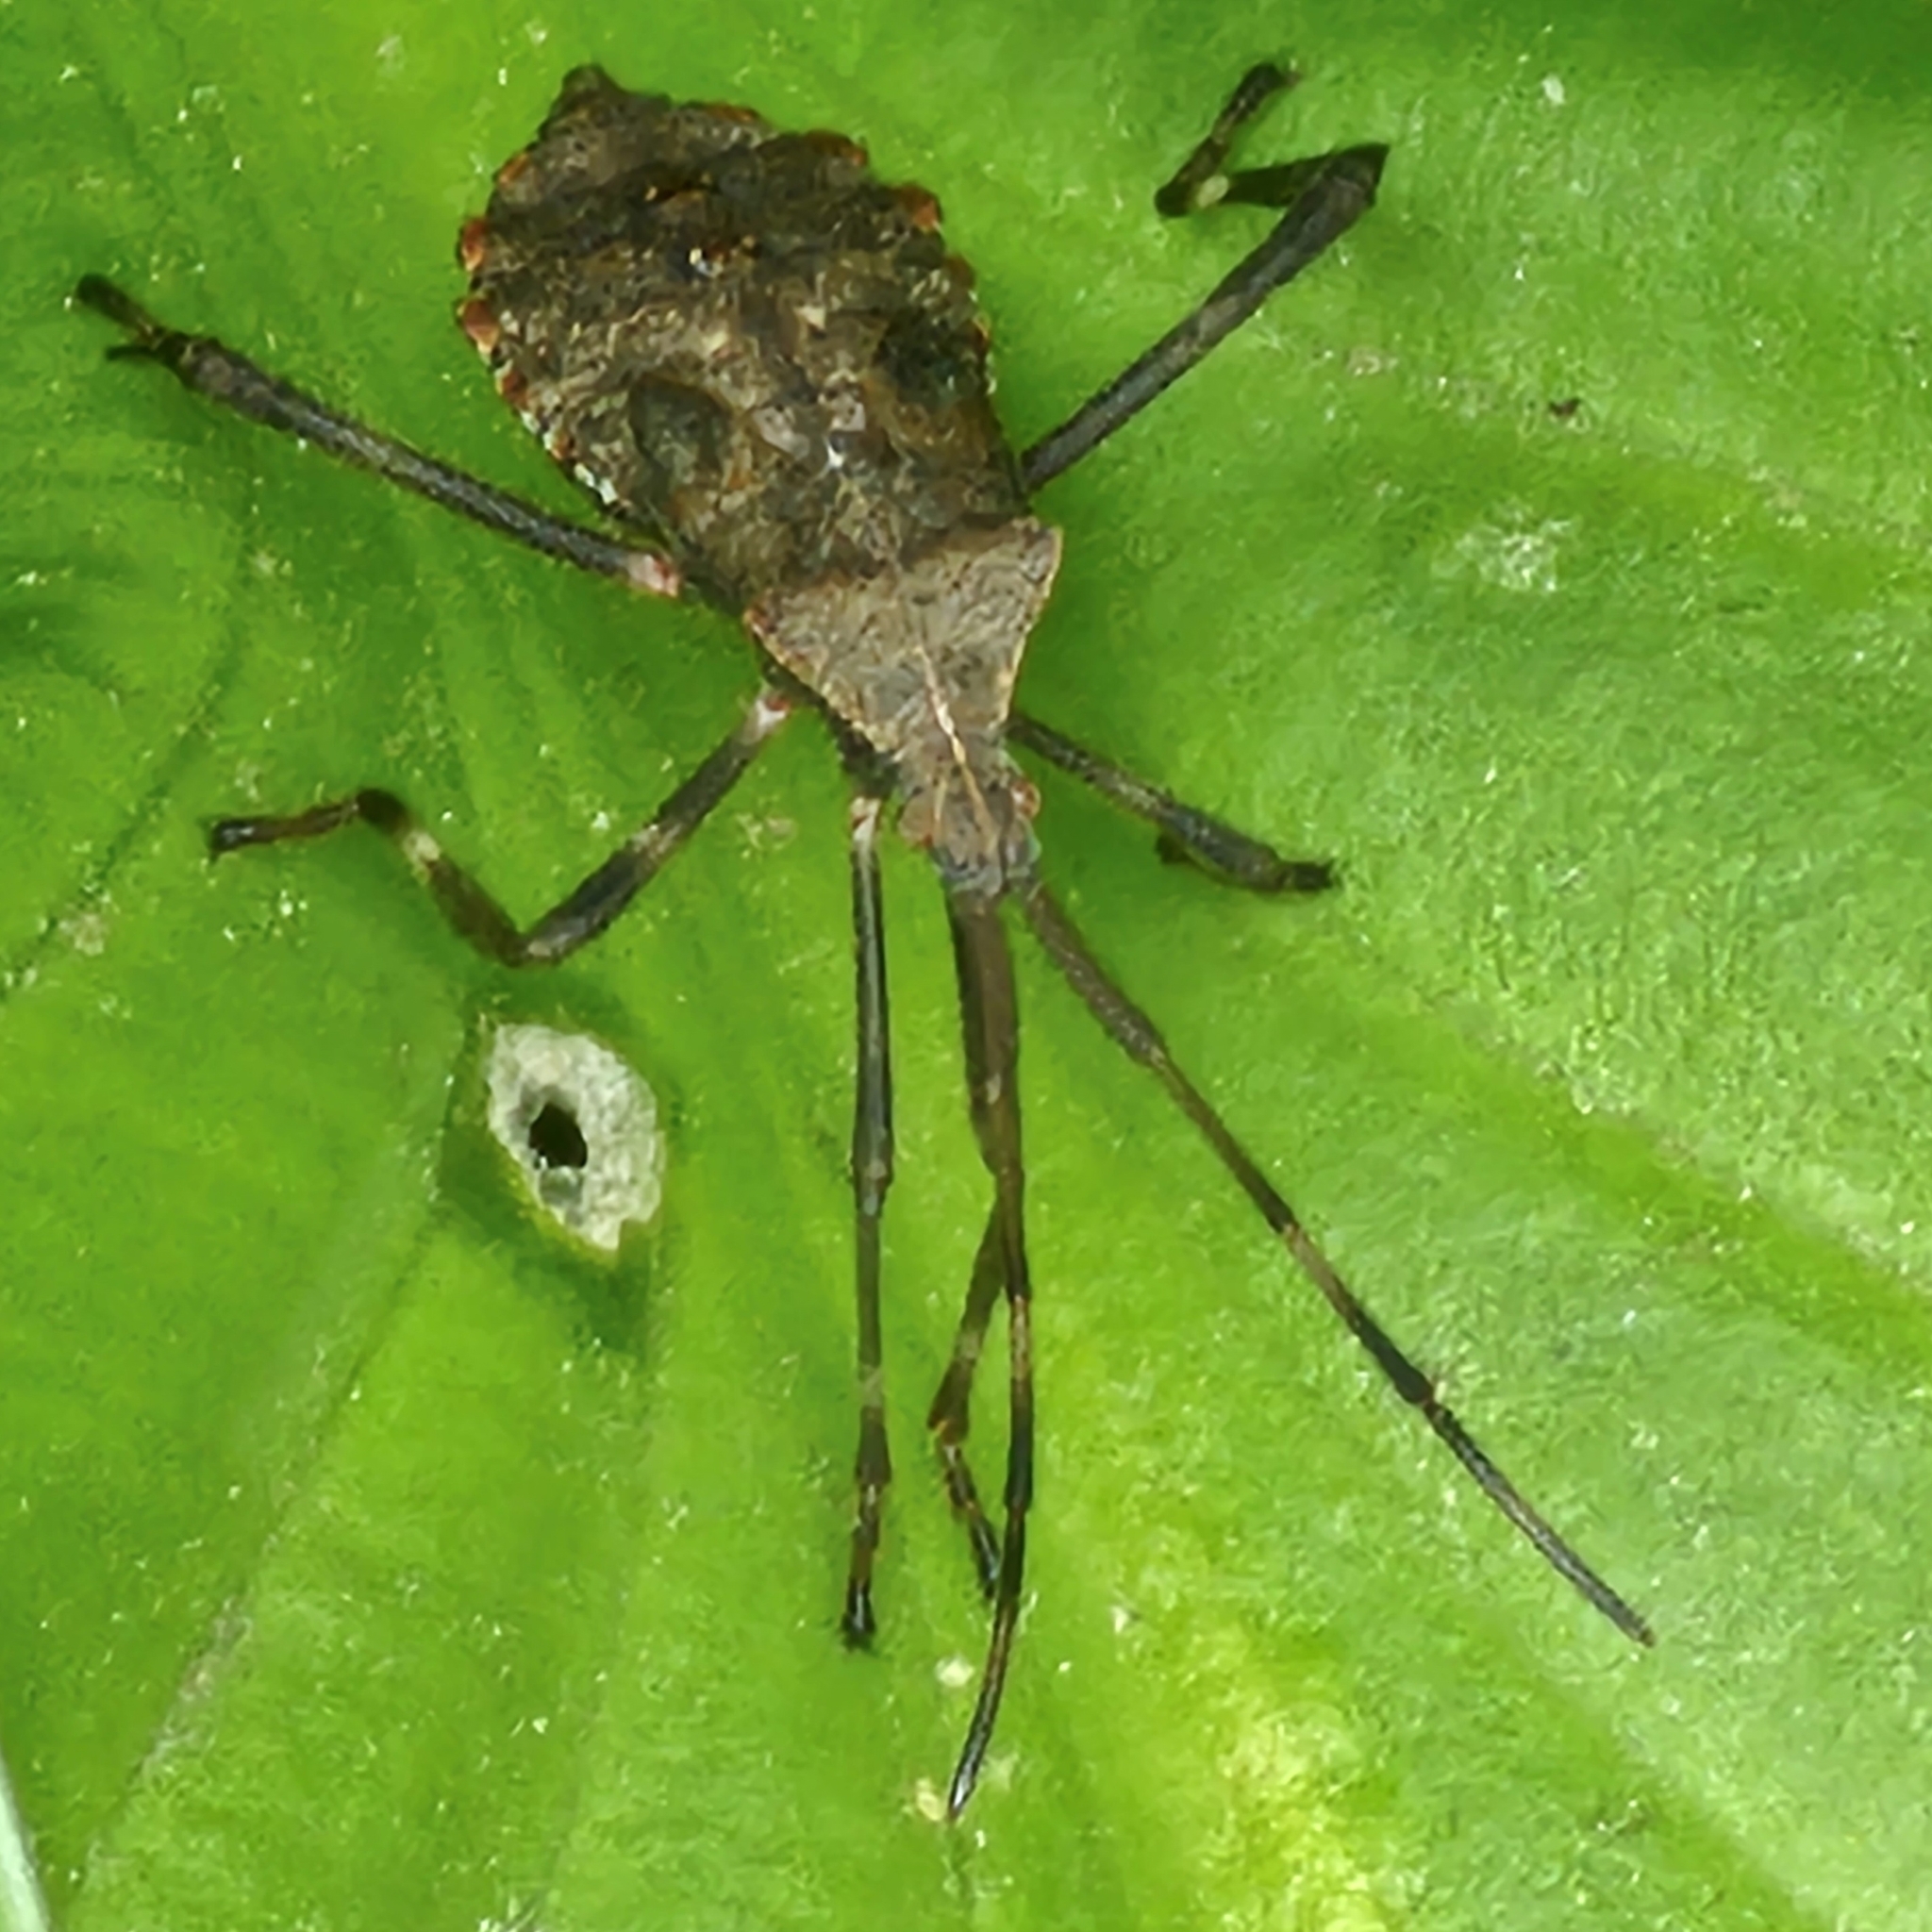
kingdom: Animalia
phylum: Arthropoda
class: Insecta
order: Hemiptera
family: Coreidae
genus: Acanthocephala
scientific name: Acanthocephala terminalis
